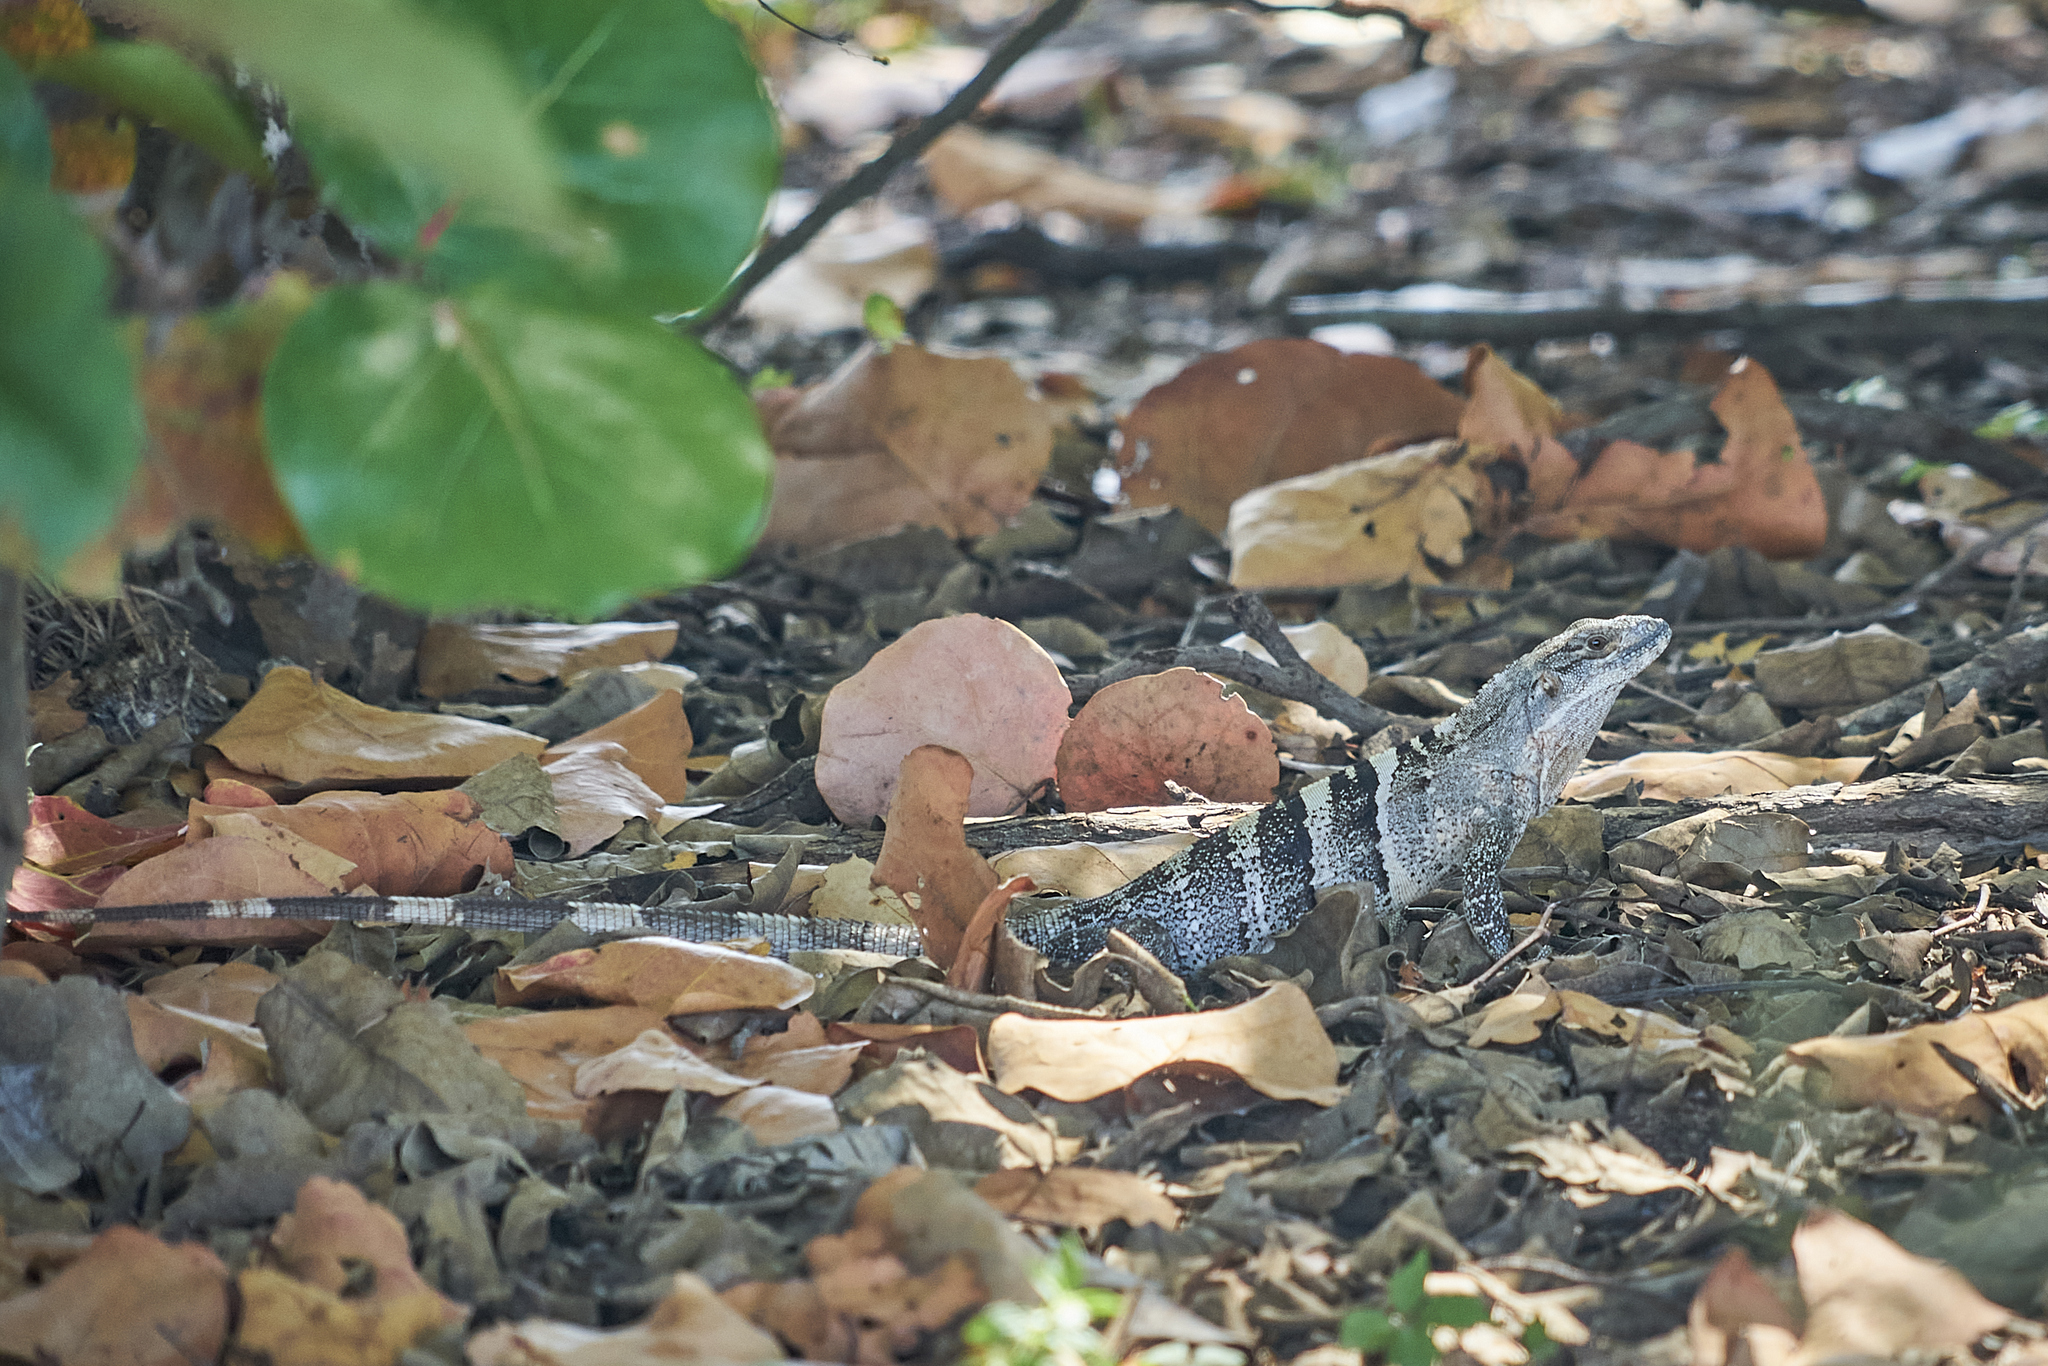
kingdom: Animalia
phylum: Chordata
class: Squamata
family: Iguanidae
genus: Ctenosaura
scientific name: Ctenosaura similis
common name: Black spiny-tailed iguana
